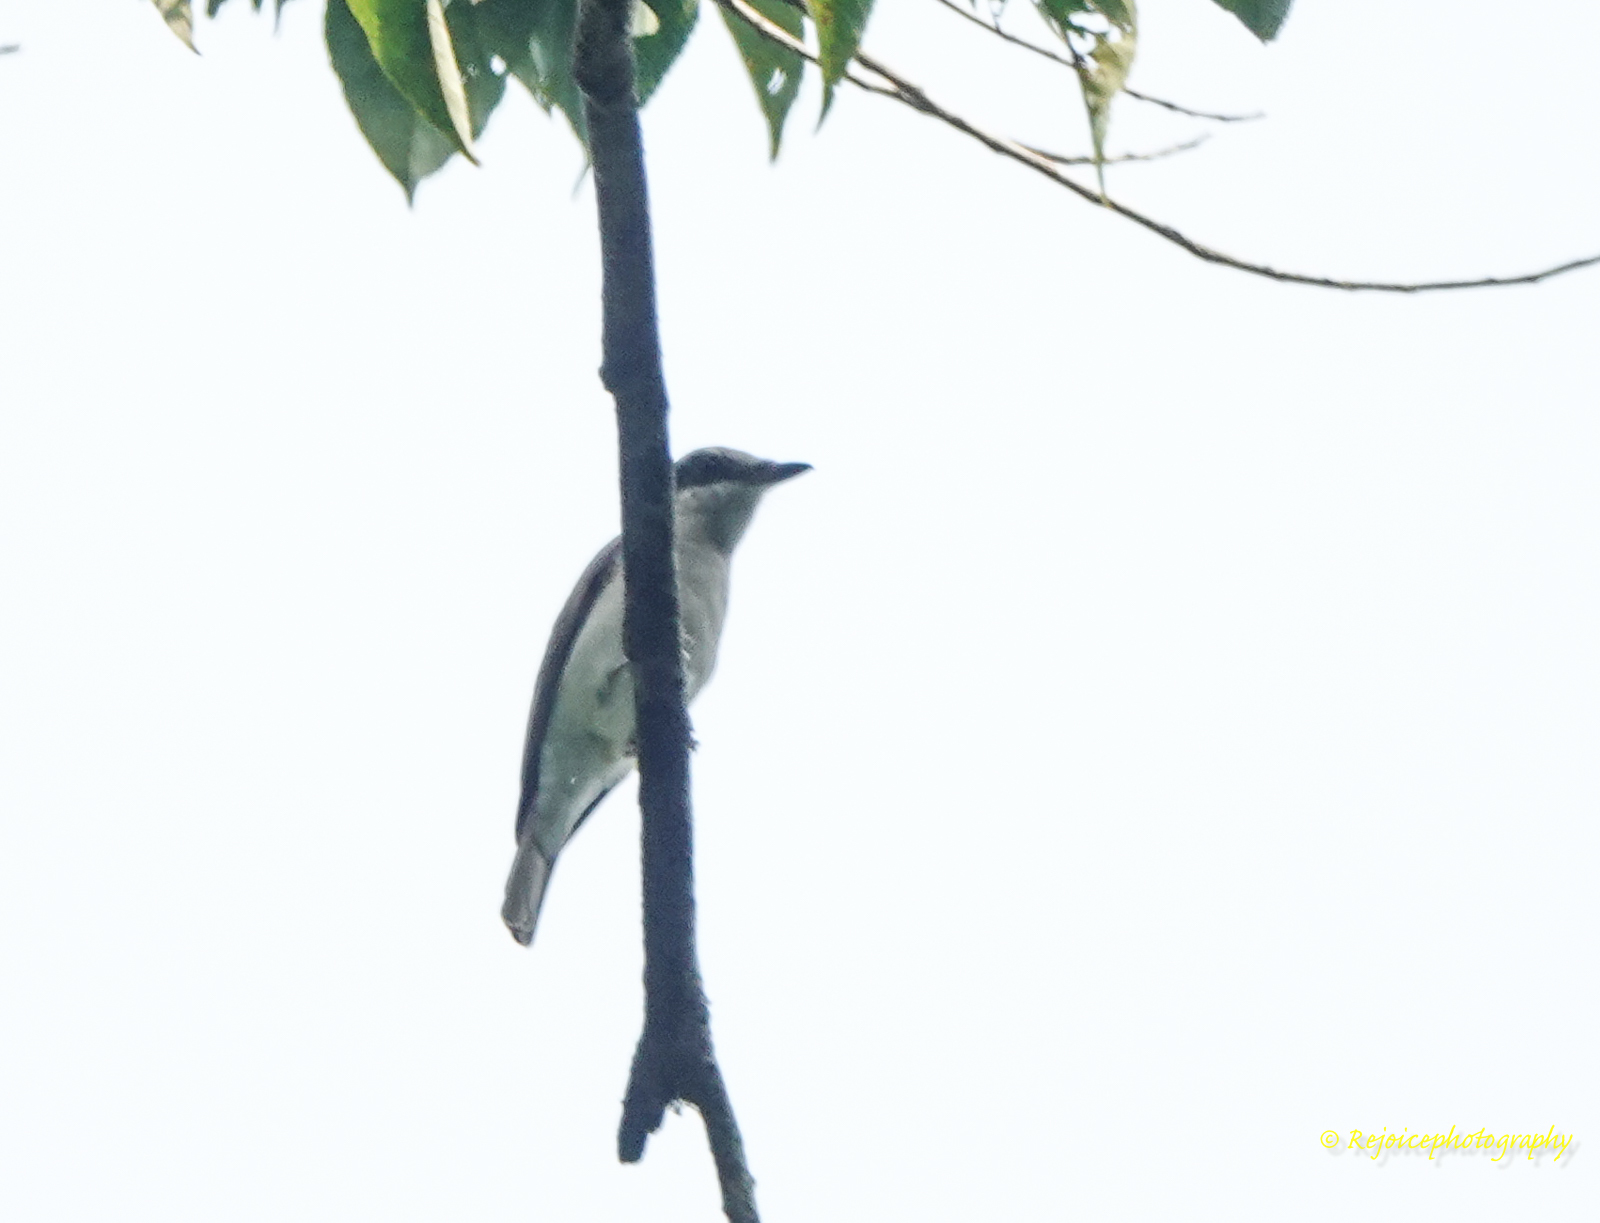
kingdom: Animalia
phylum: Chordata
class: Aves
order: Passeriformes
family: Campephagidae
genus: Coracina
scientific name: Coracina macei
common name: Large cuckooshrike
